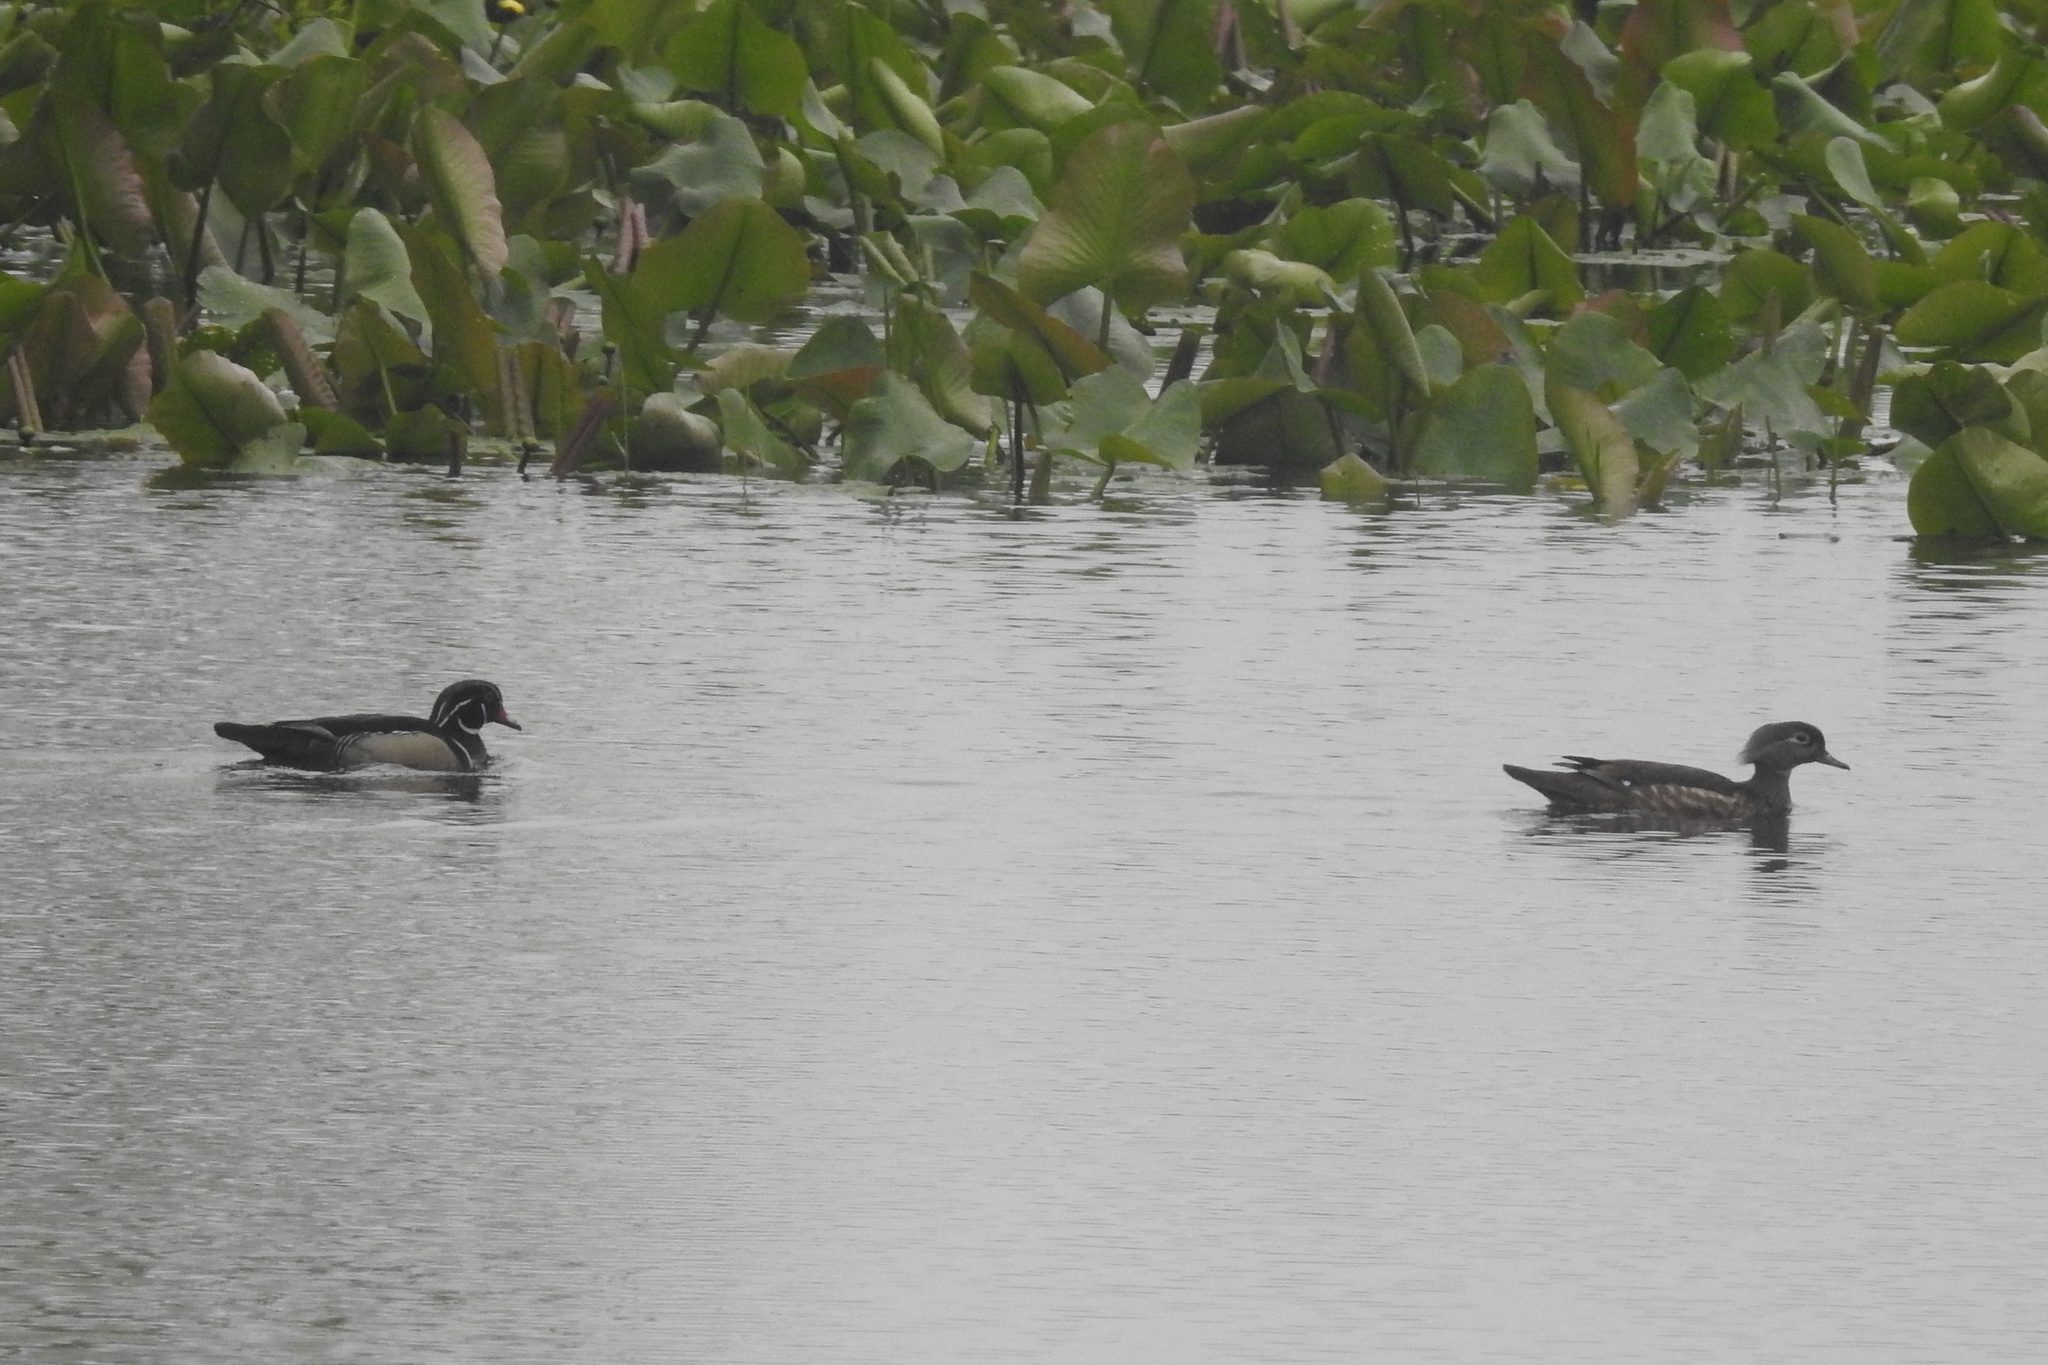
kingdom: Animalia
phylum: Chordata
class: Aves
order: Anseriformes
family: Anatidae
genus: Aix
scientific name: Aix sponsa
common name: Wood duck
